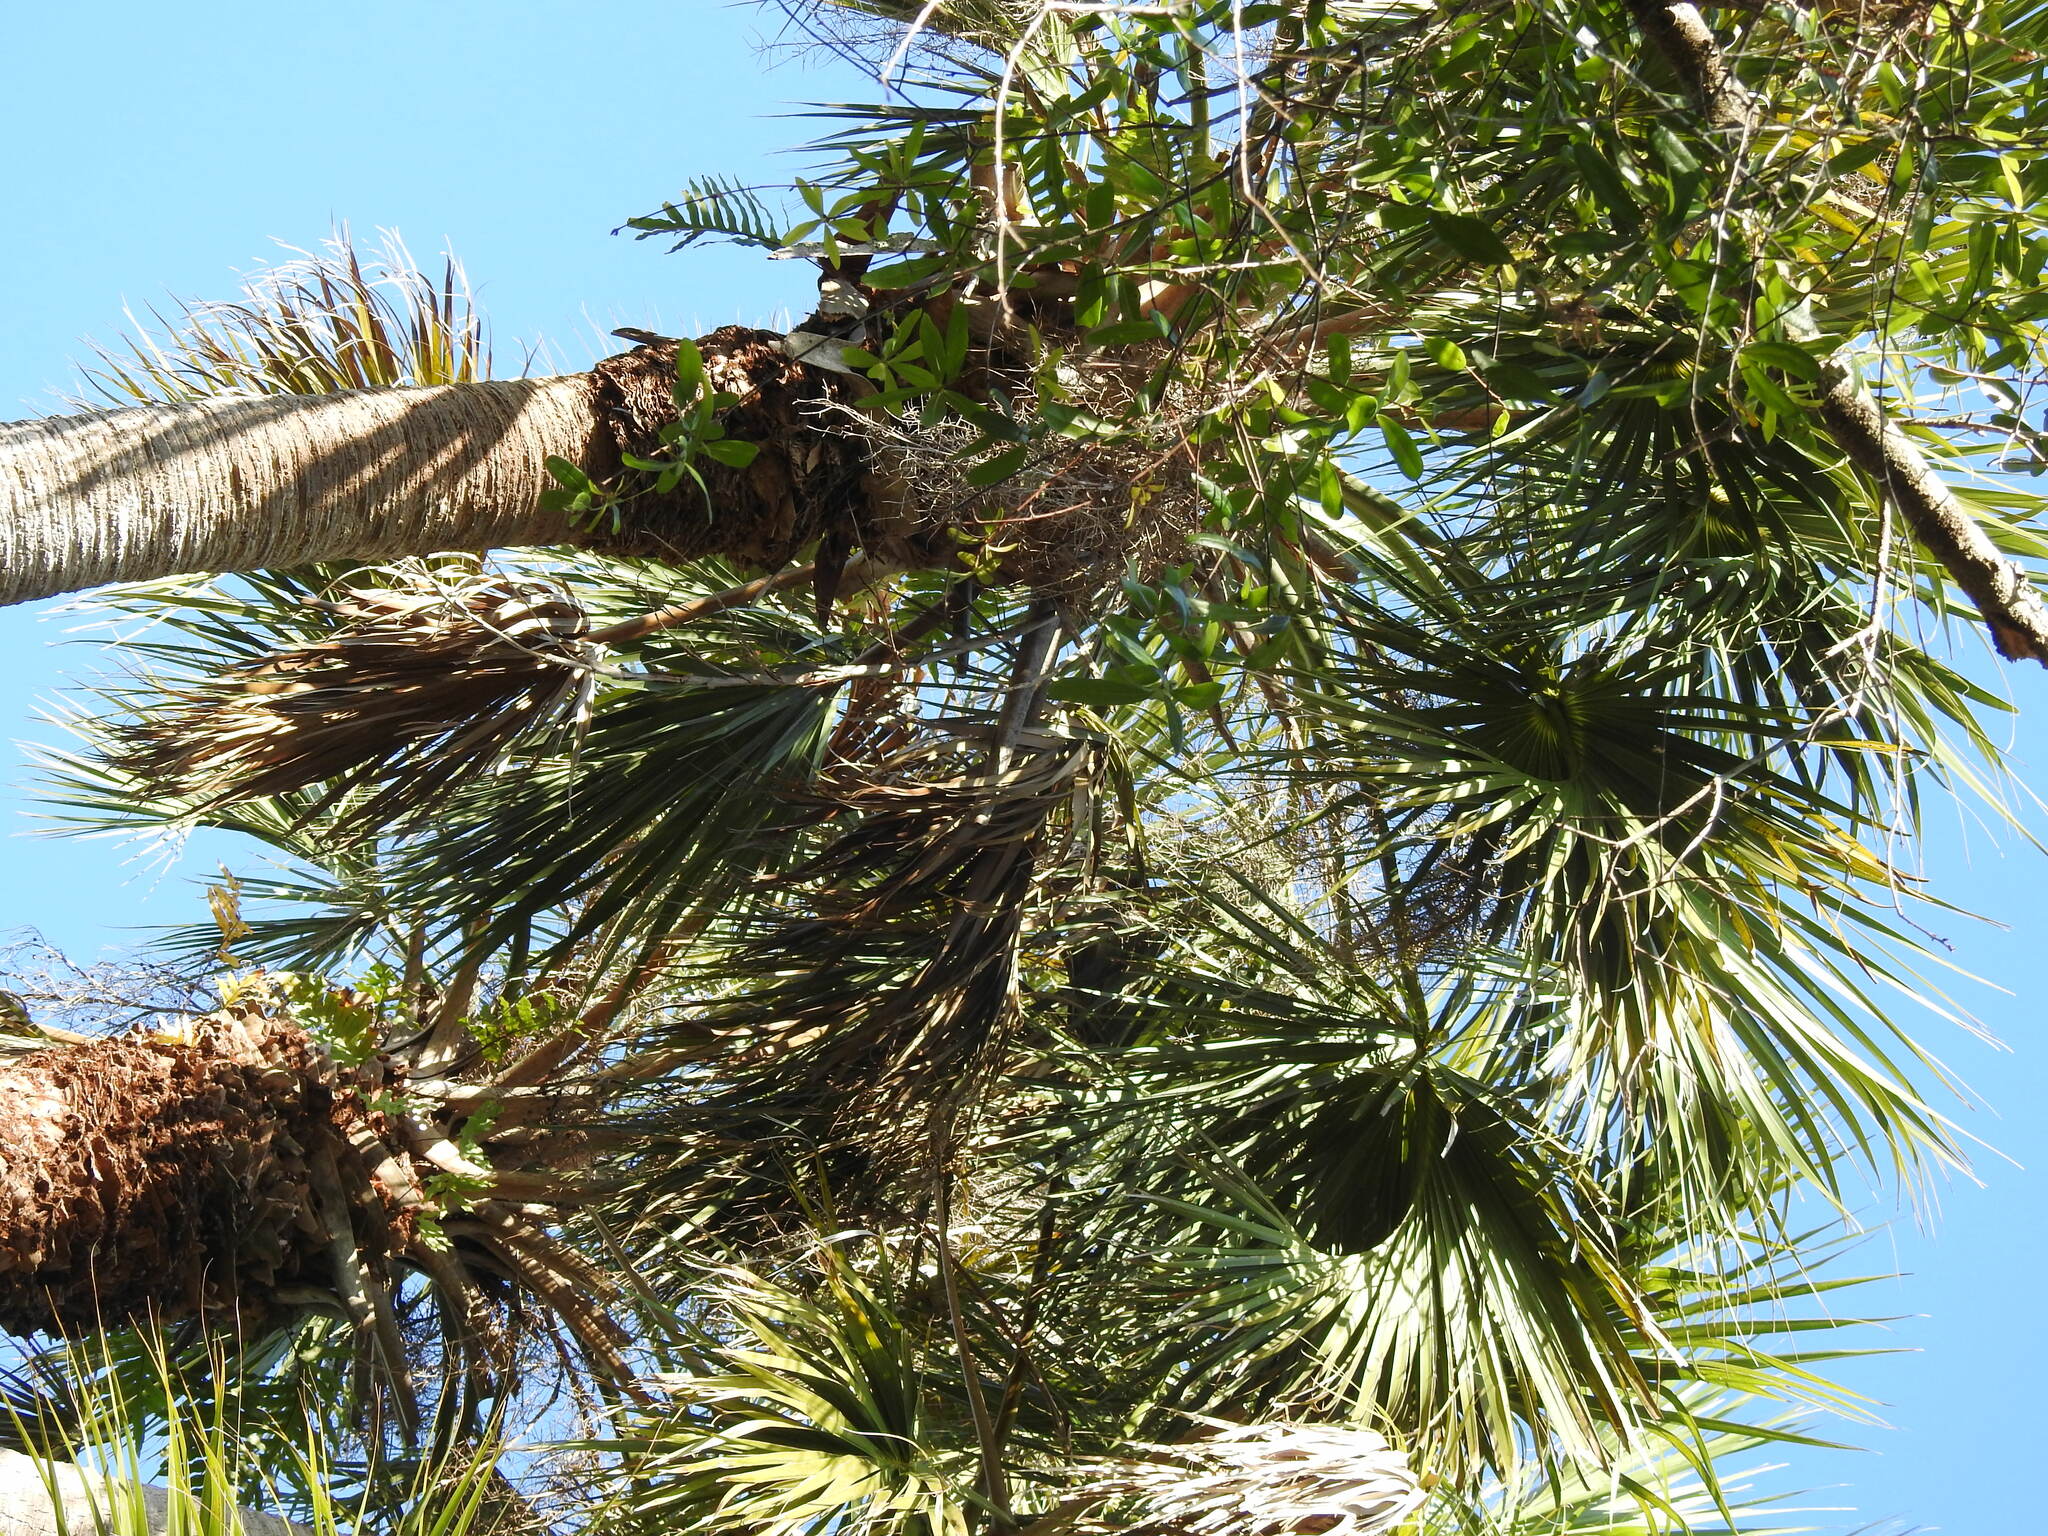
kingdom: Plantae
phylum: Tracheophyta
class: Liliopsida
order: Arecales
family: Arecaceae
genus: Sabal
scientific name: Sabal palmetto
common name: Blue palmetto
